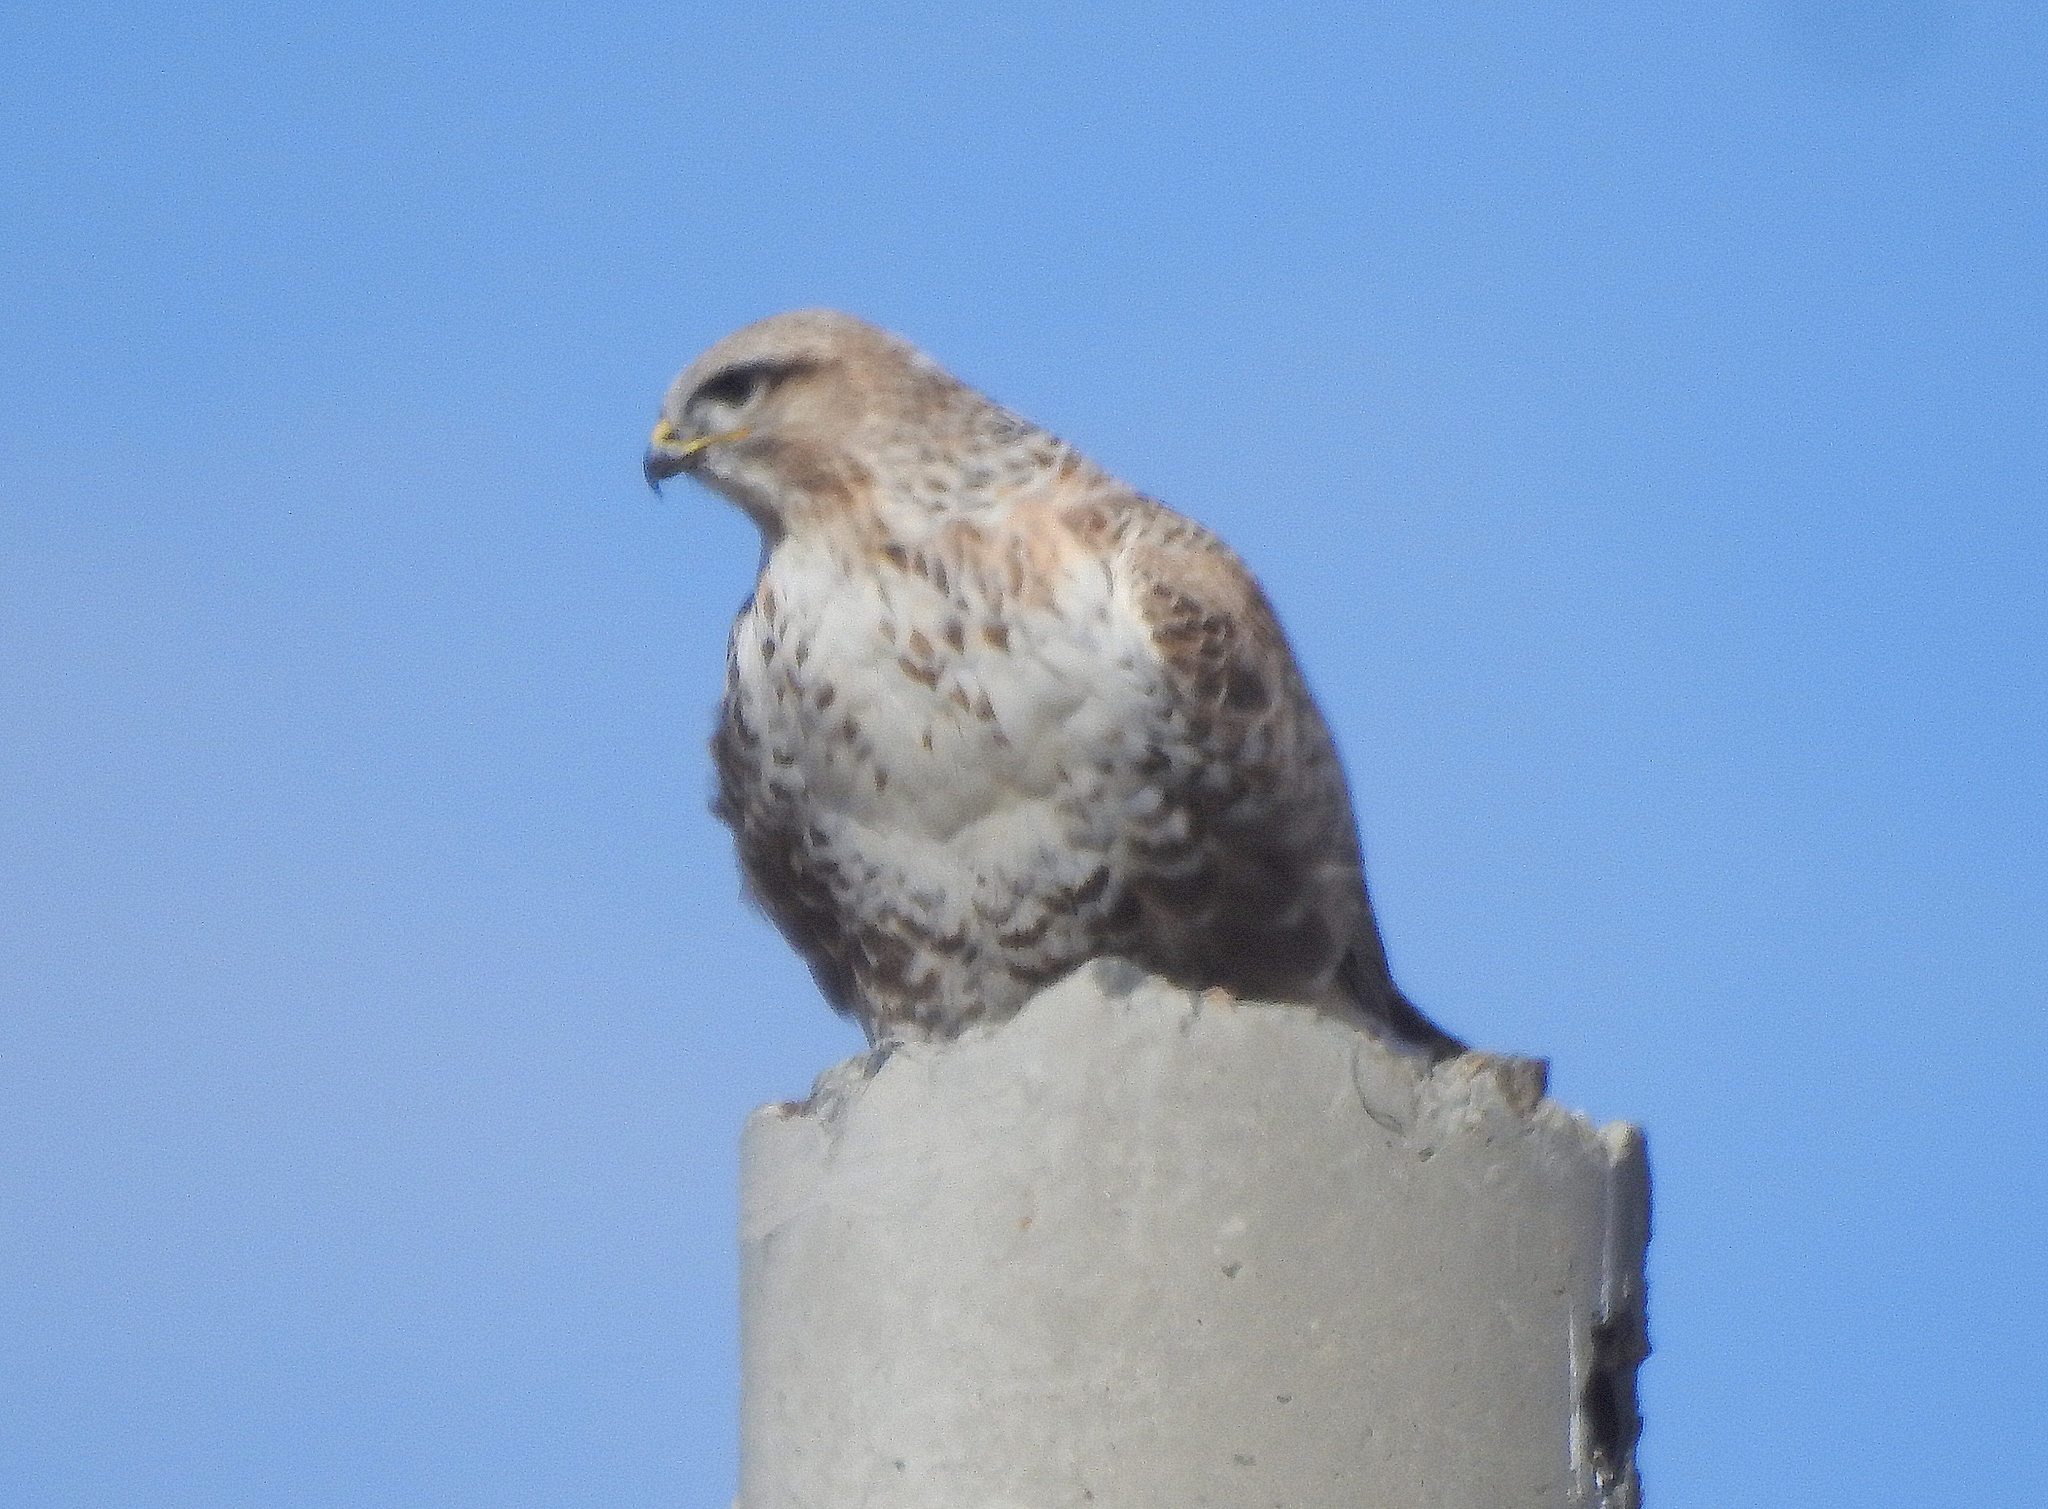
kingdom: Animalia
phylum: Chordata
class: Aves
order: Accipitriformes
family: Accipitridae
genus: Buteo
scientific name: Buteo hemilasius
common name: Upland buzzard
